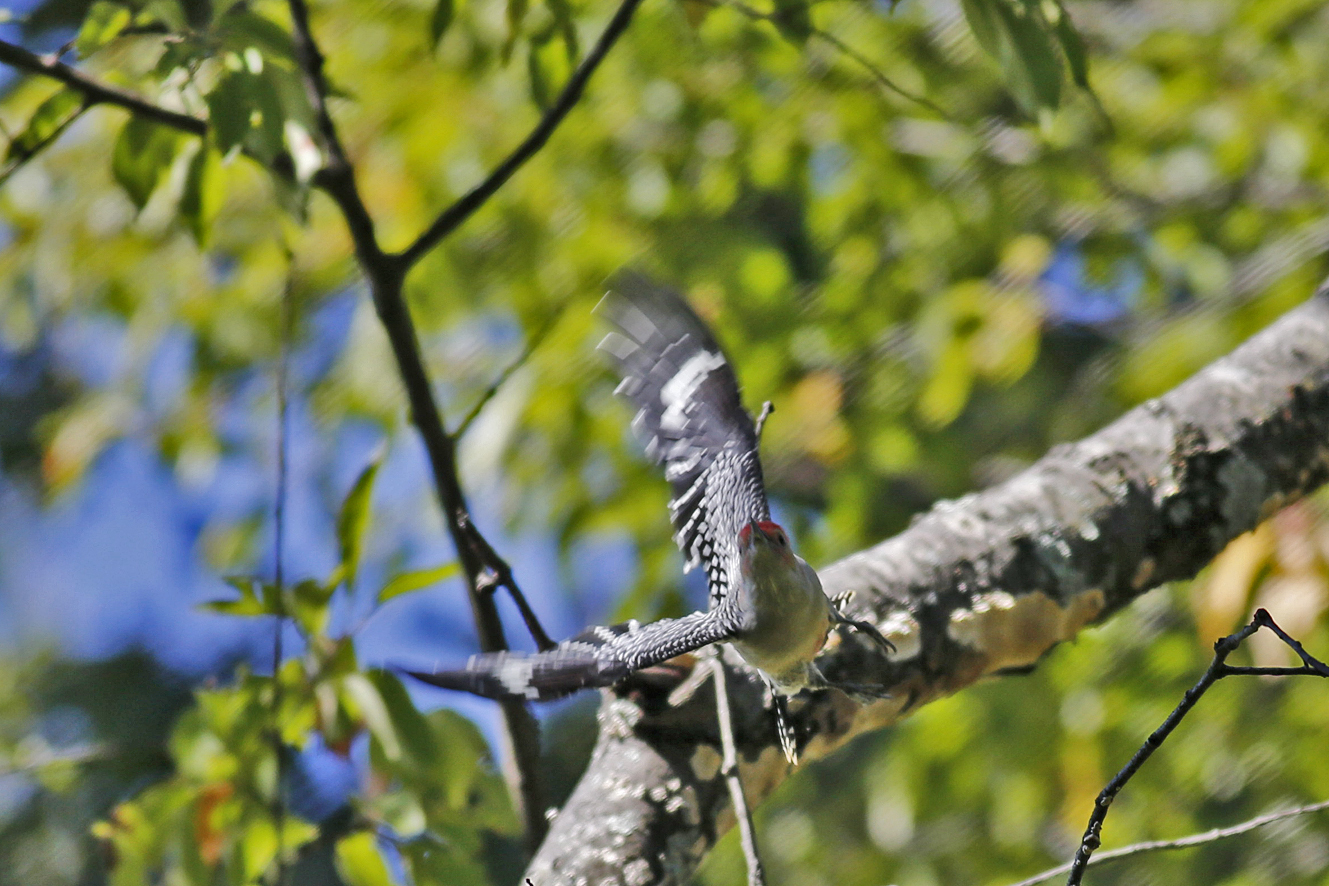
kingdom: Animalia
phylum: Chordata
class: Aves
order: Piciformes
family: Picidae
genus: Melanerpes
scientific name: Melanerpes carolinus
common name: Red-bellied woodpecker
